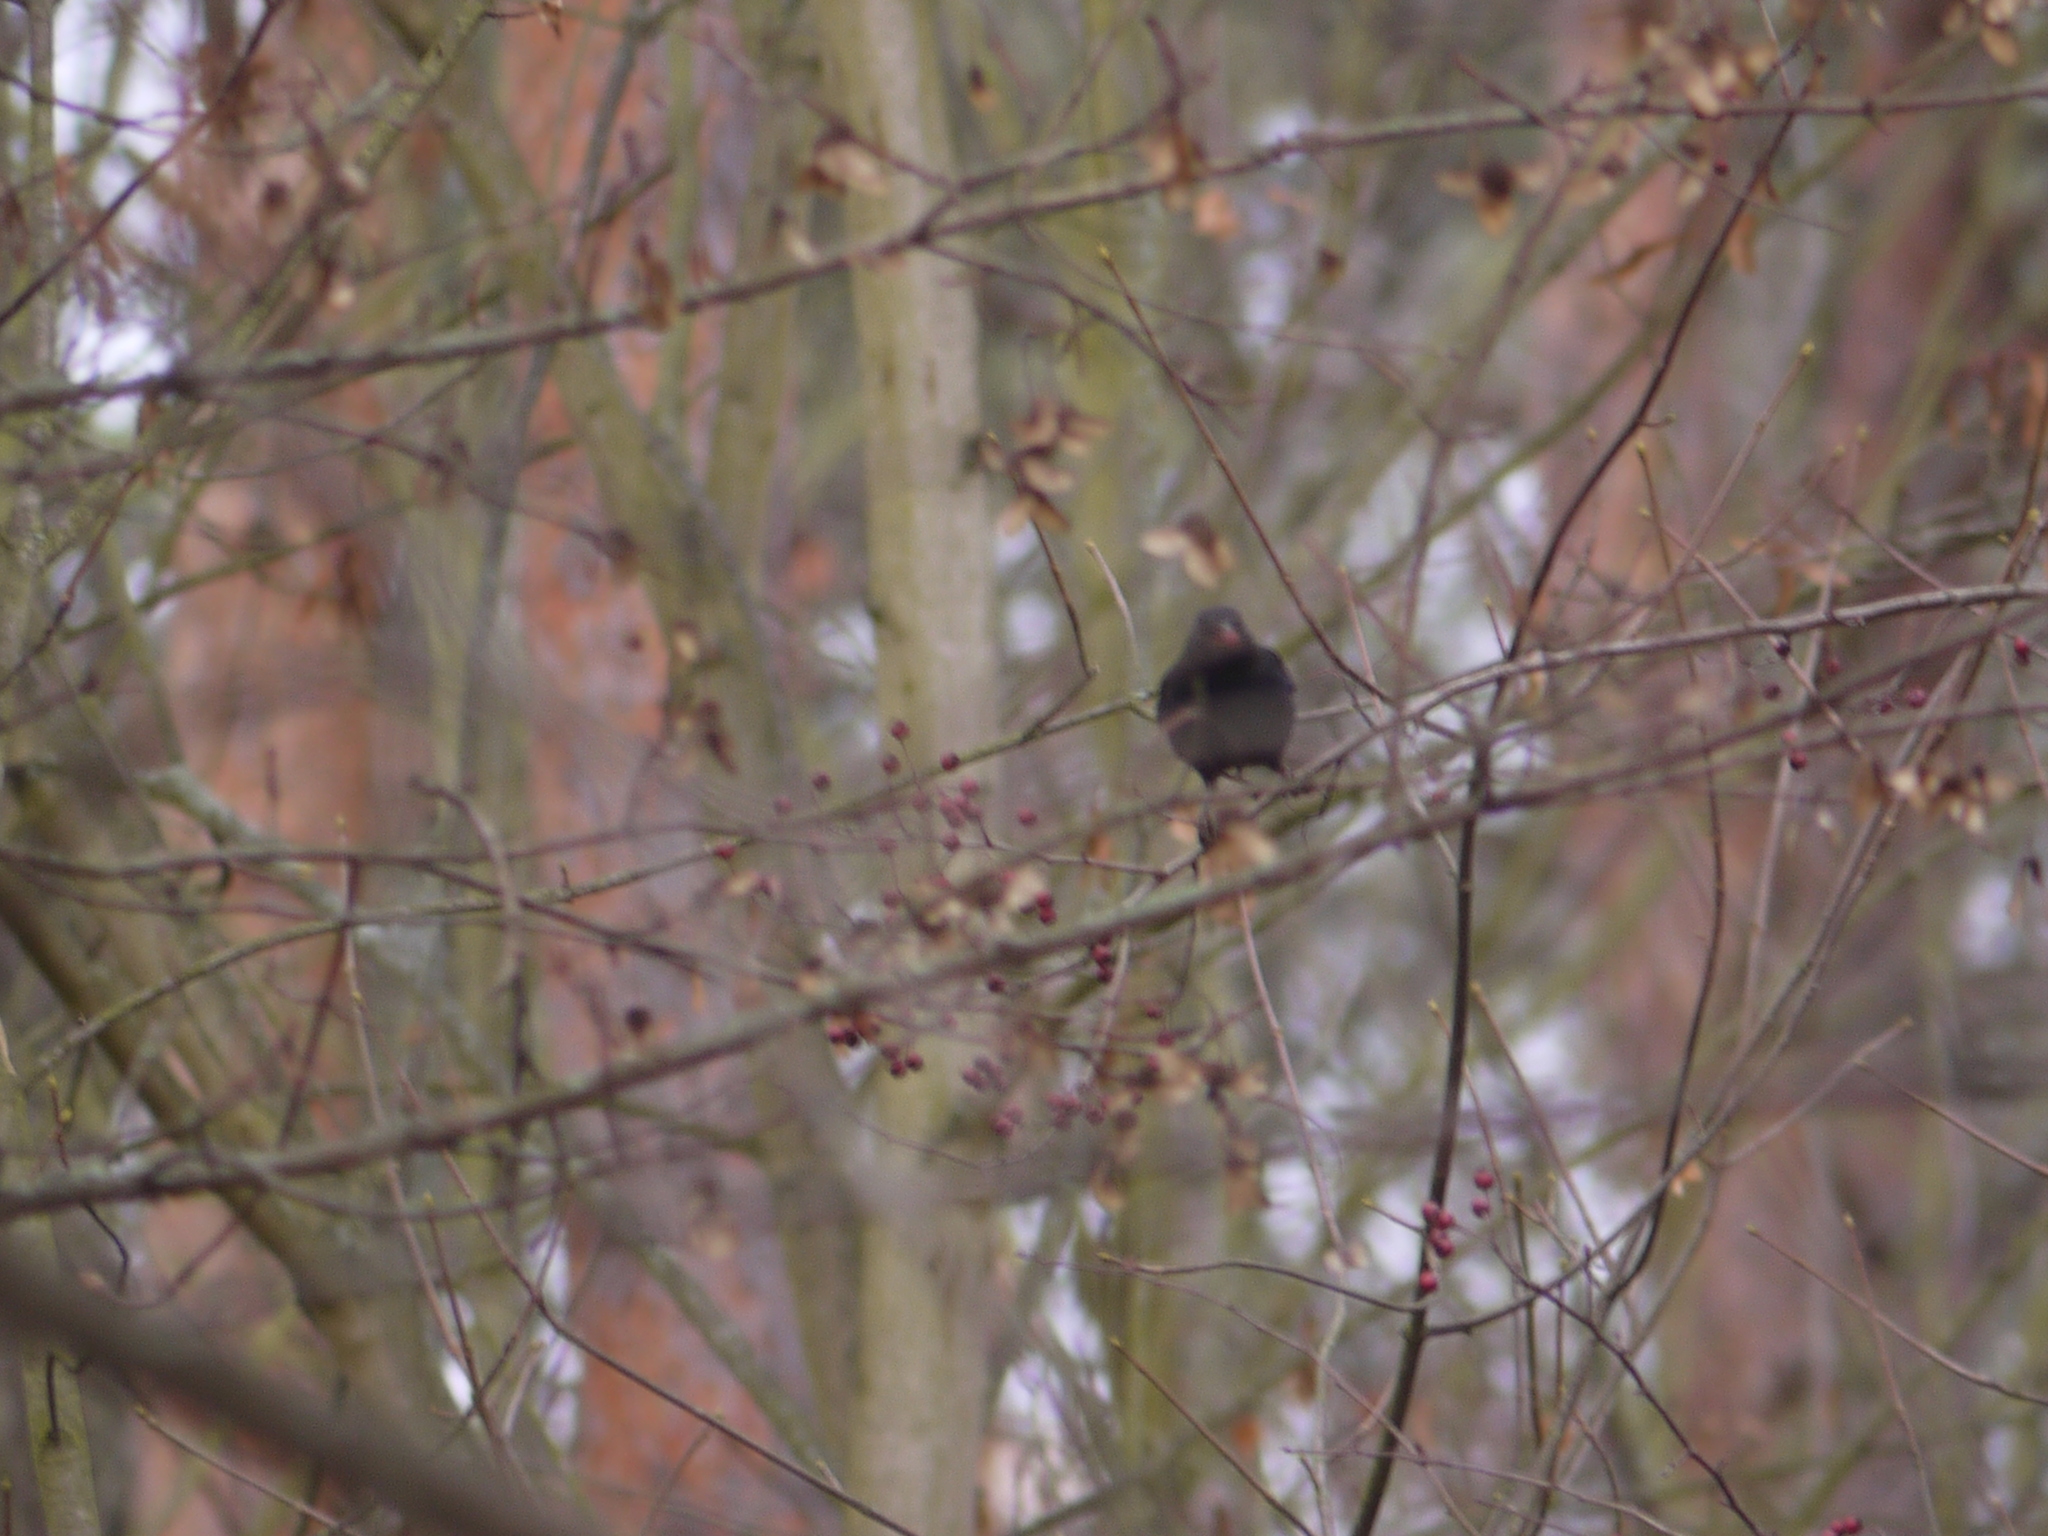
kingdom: Animalia
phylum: Chordata
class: Aves
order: Passeriformes
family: Turdidae
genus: Turdus
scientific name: Turdus merula
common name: Common blackbird
